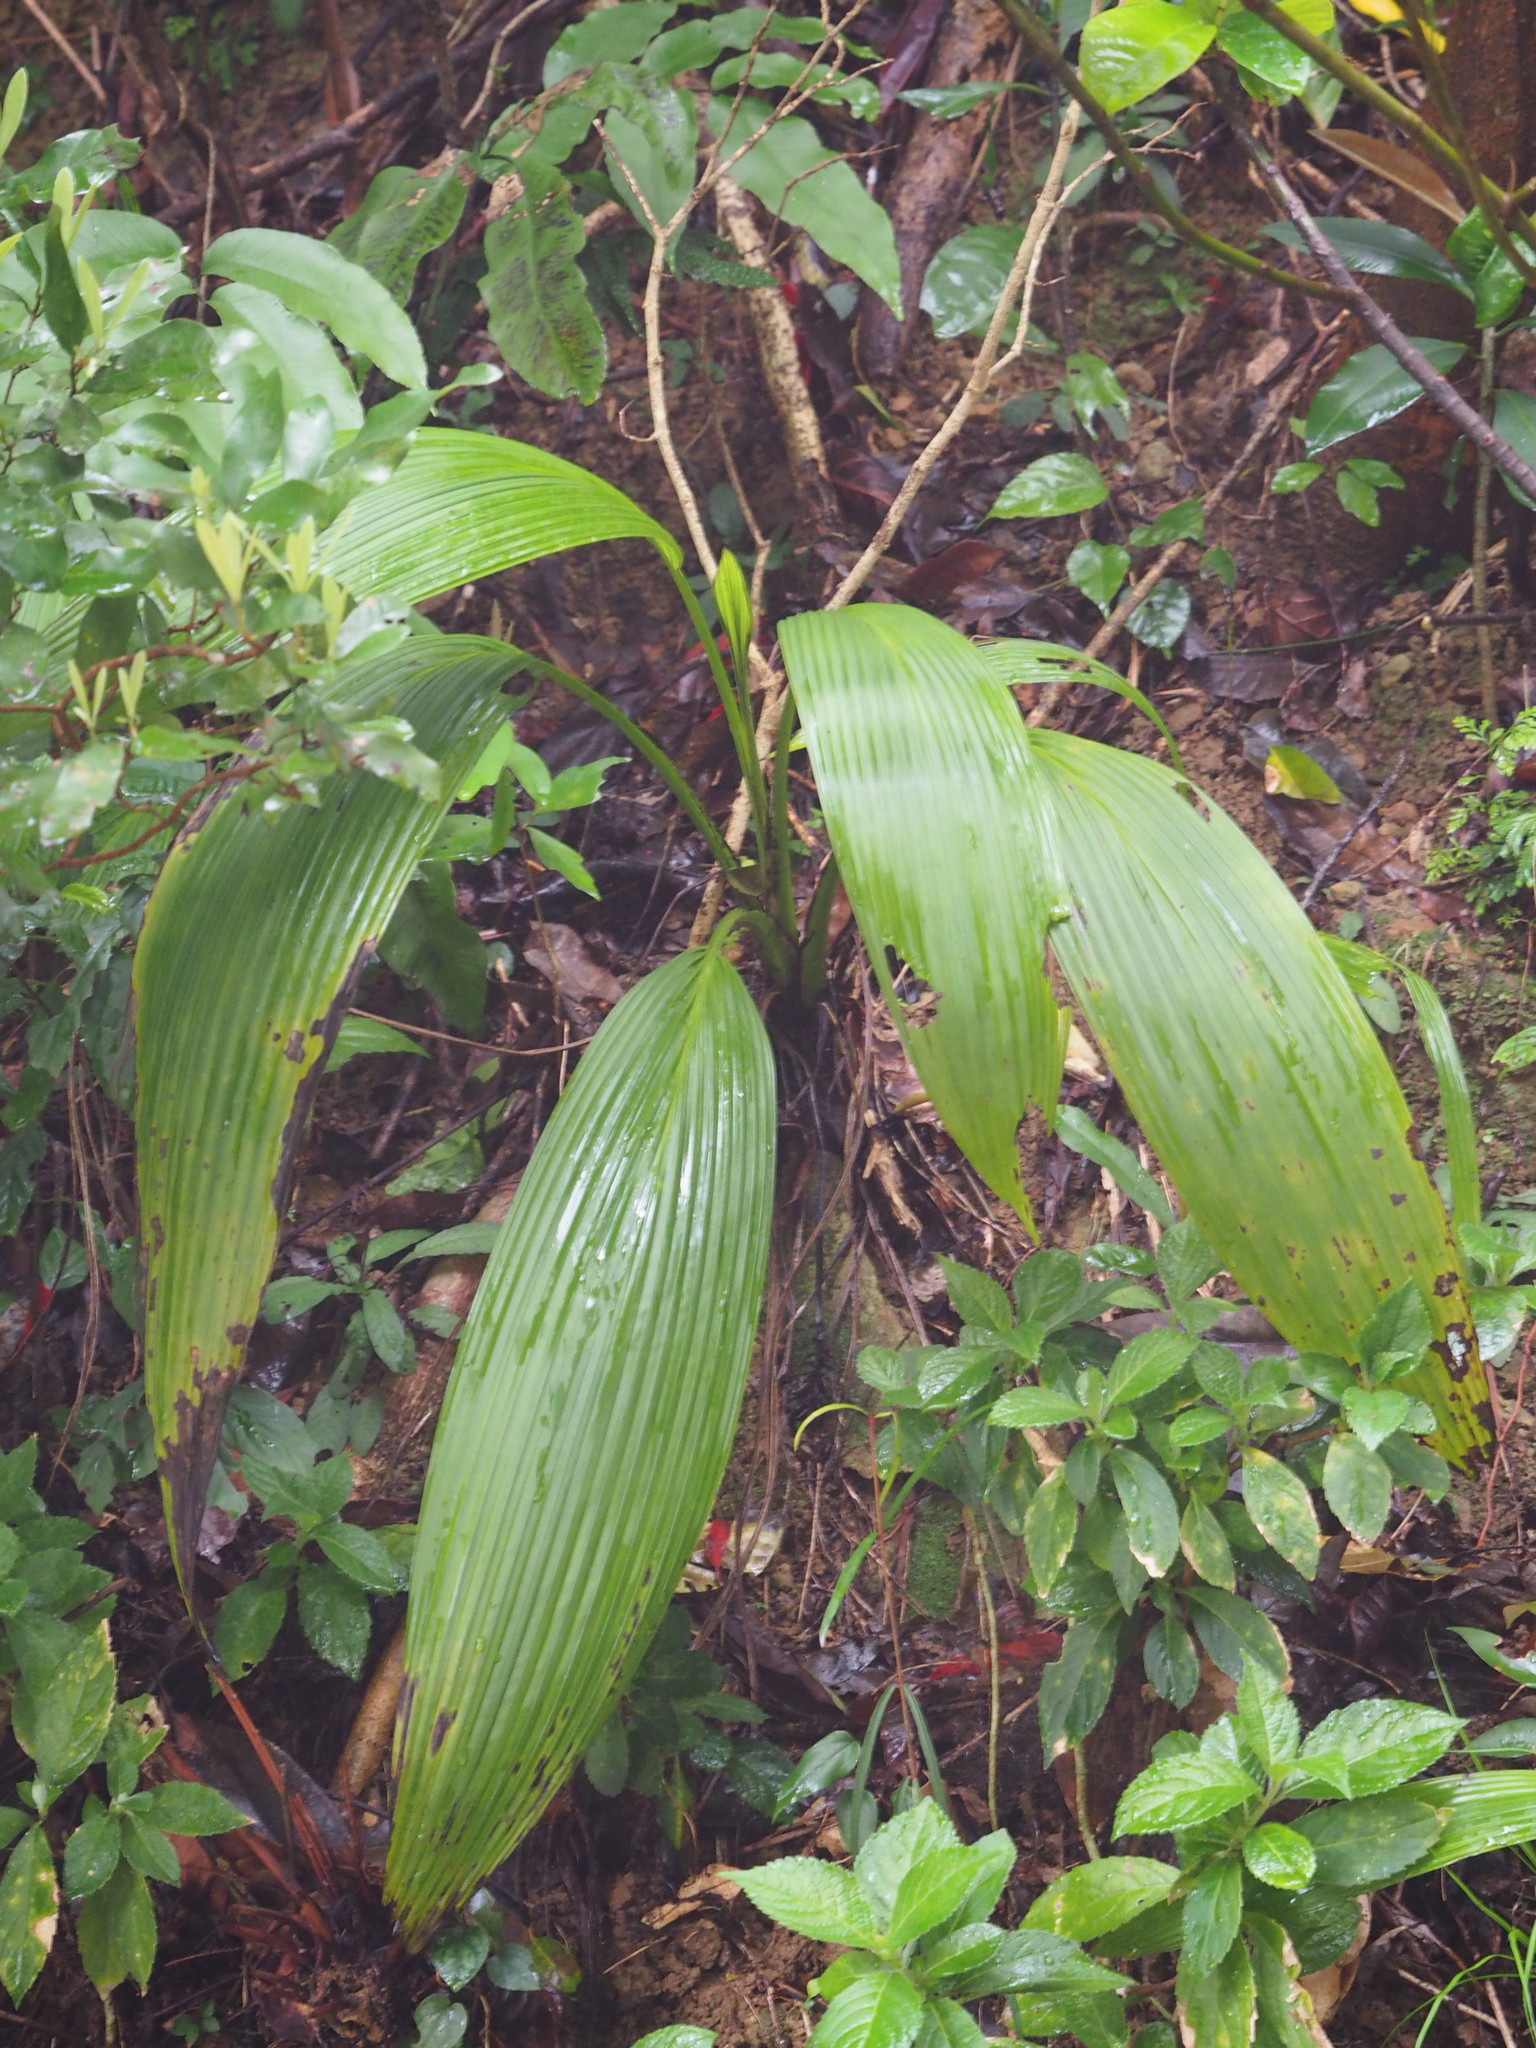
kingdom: Plantae
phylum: Tracheophyta
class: Liliopsida
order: Asparagales
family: Hypoxidaceae
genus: Curculigo
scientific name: Curculigo capitulata
